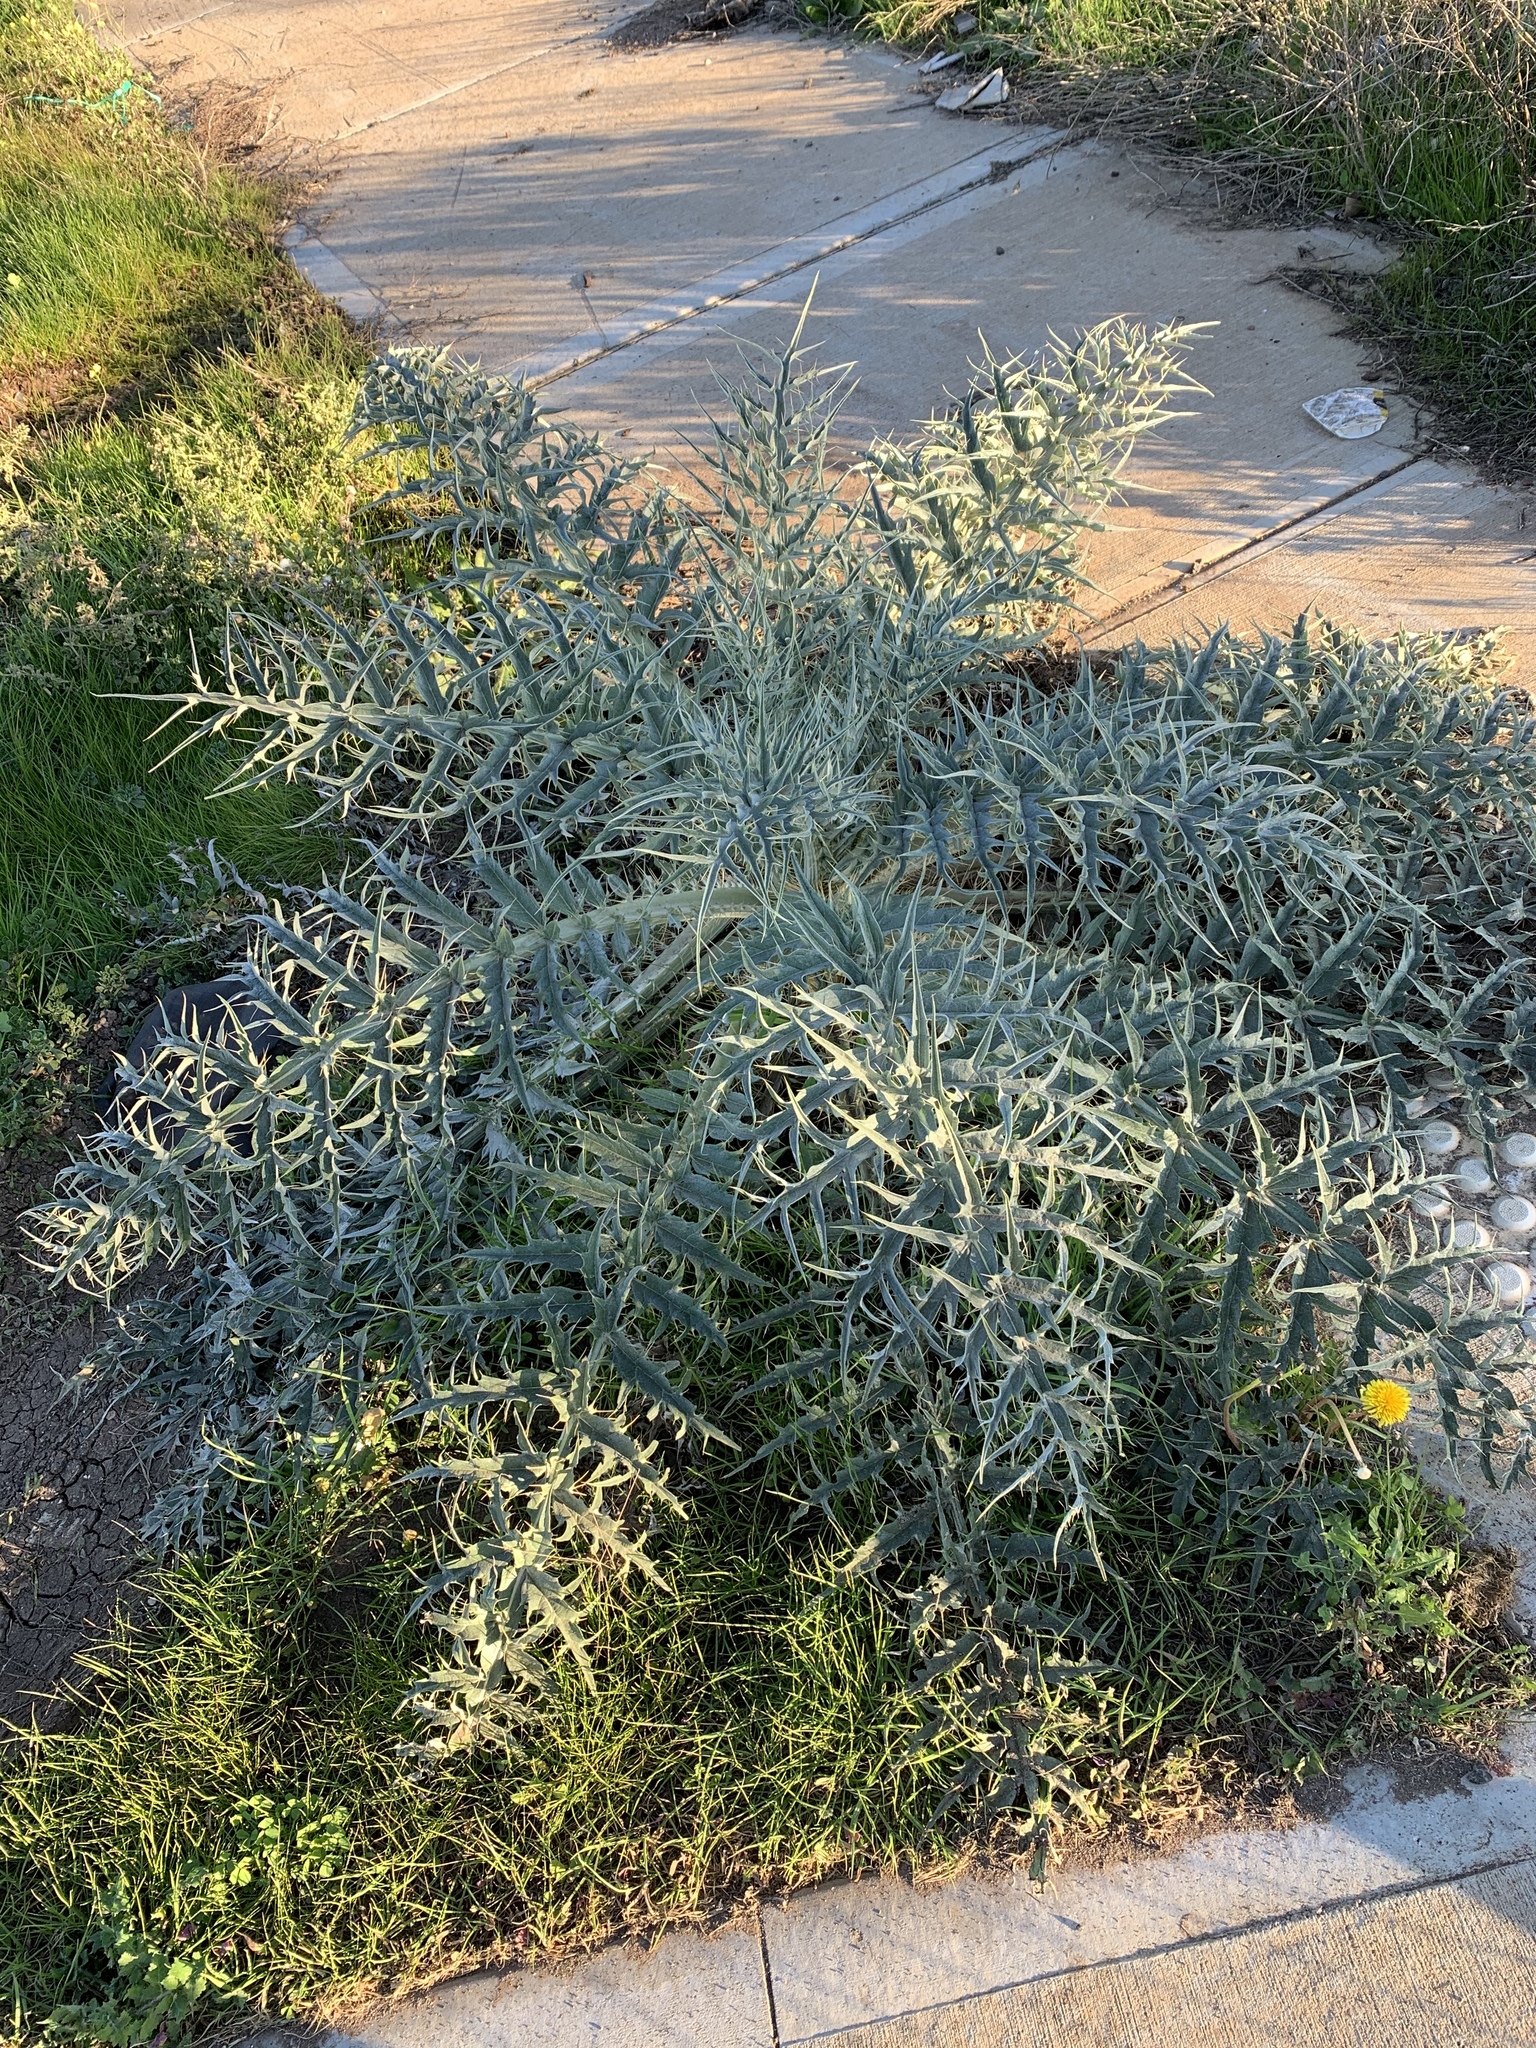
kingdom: Plantae
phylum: Tracheophyta
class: Magnoliopsida
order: Asterales
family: Asteraceae
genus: Cynara
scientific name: Cynara cardunculus
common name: Globe artichoke
